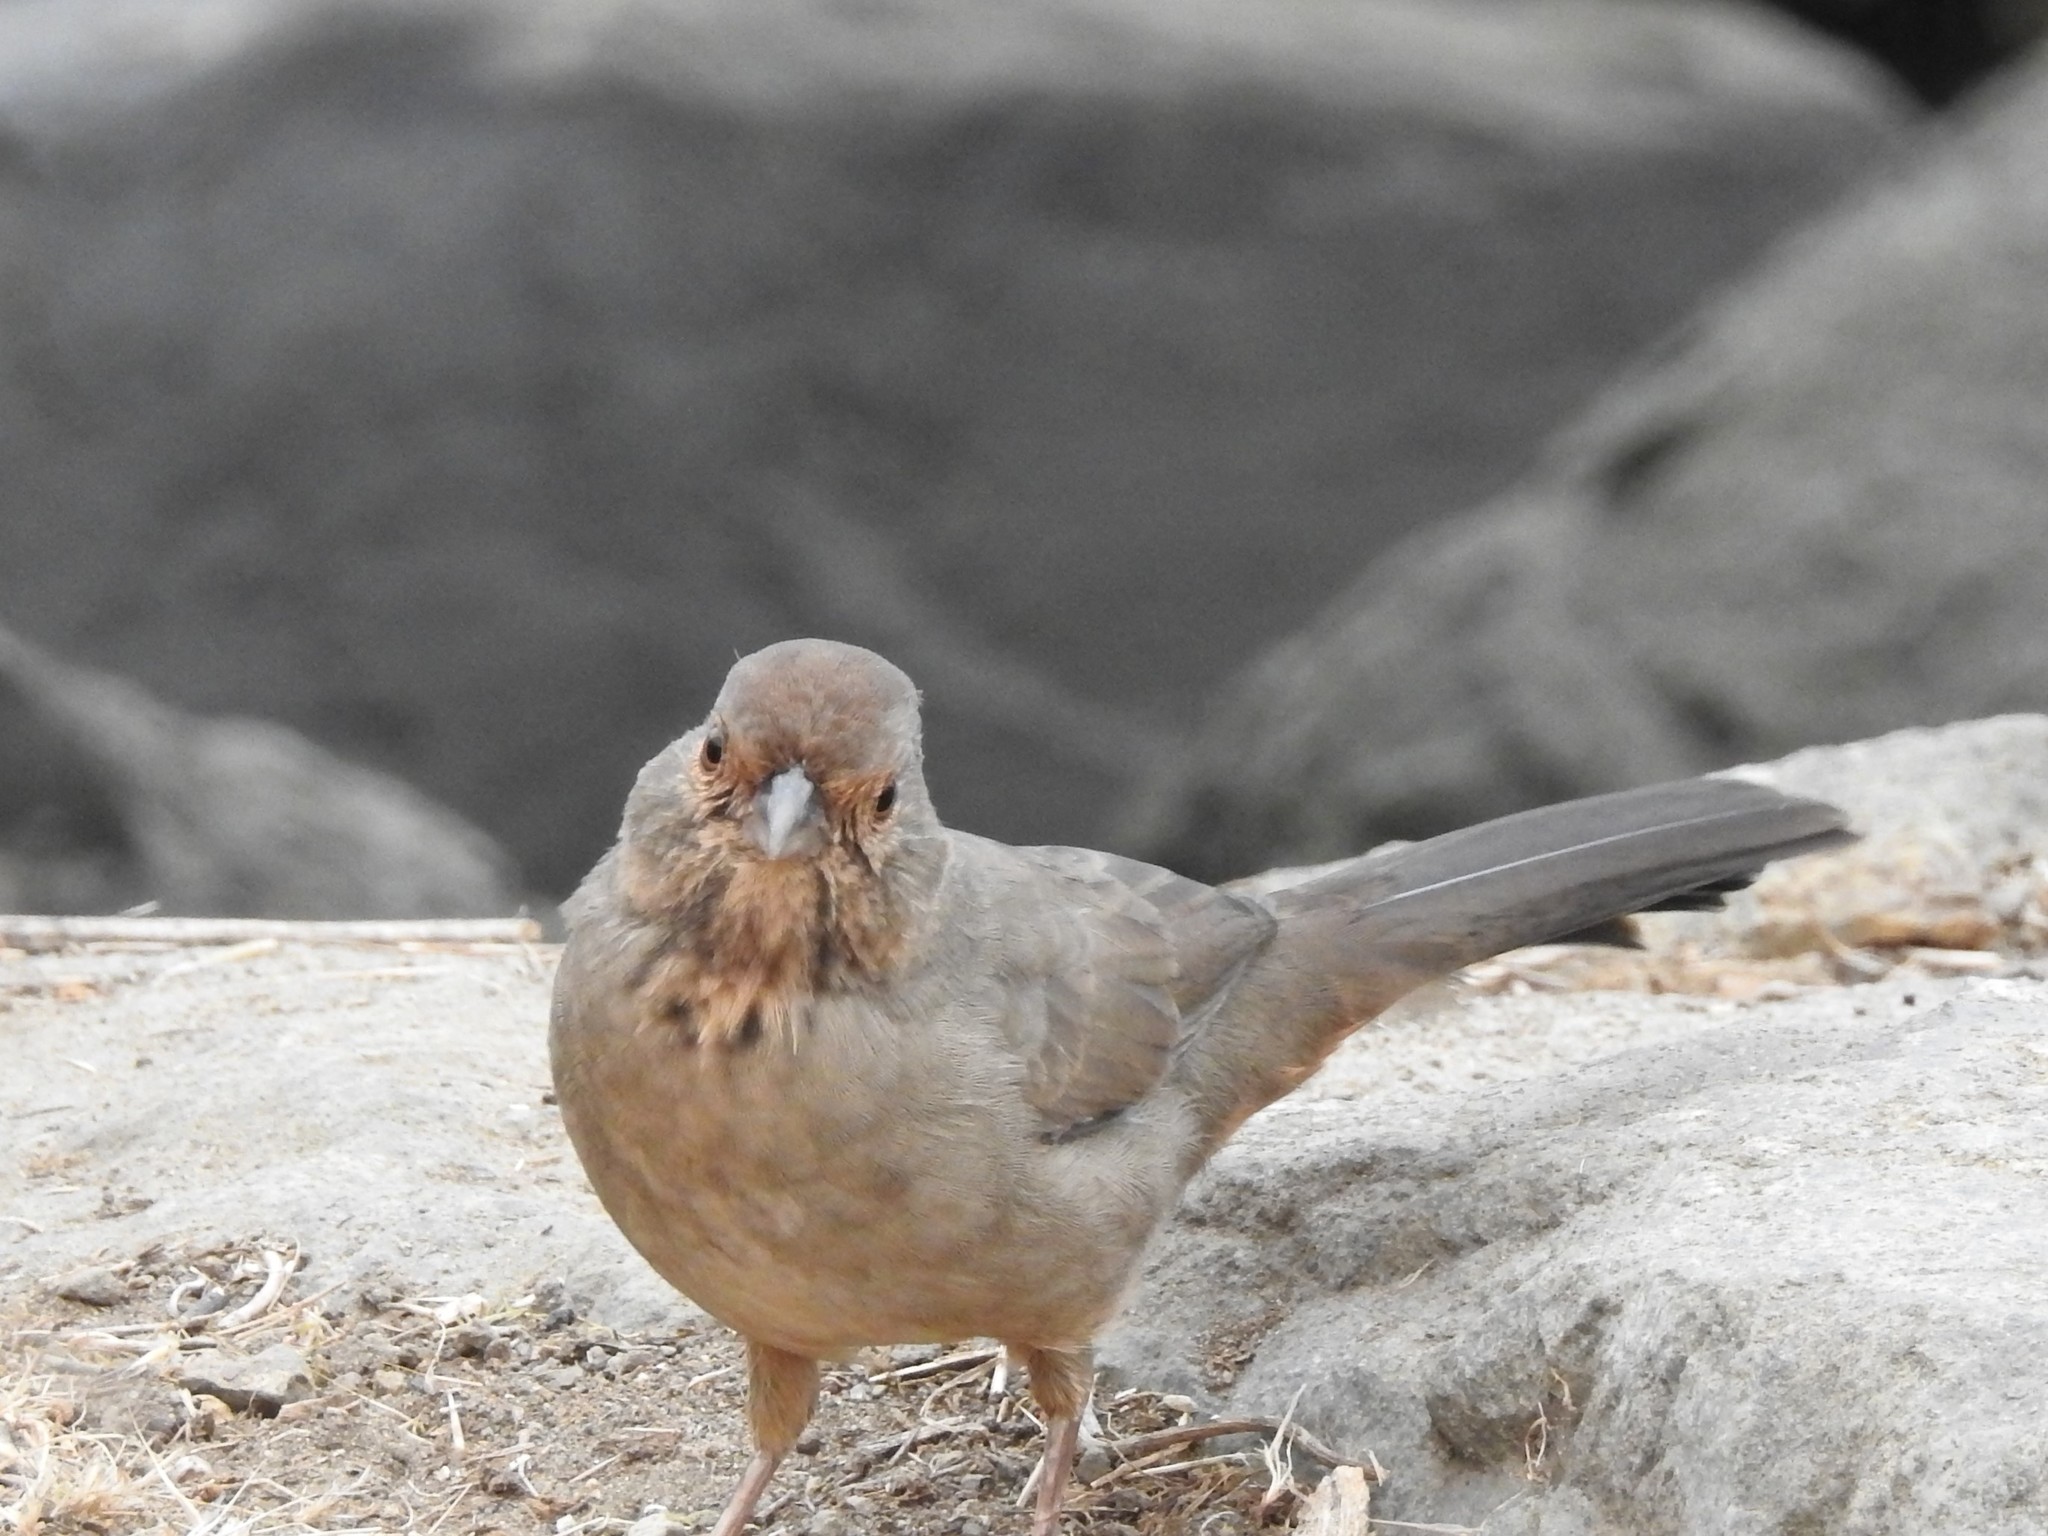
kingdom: Animalia
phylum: Chordata
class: Aves
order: Passeriformes
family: Passerellidae
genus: Melozone
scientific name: Melozone crissalis
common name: California towhee
